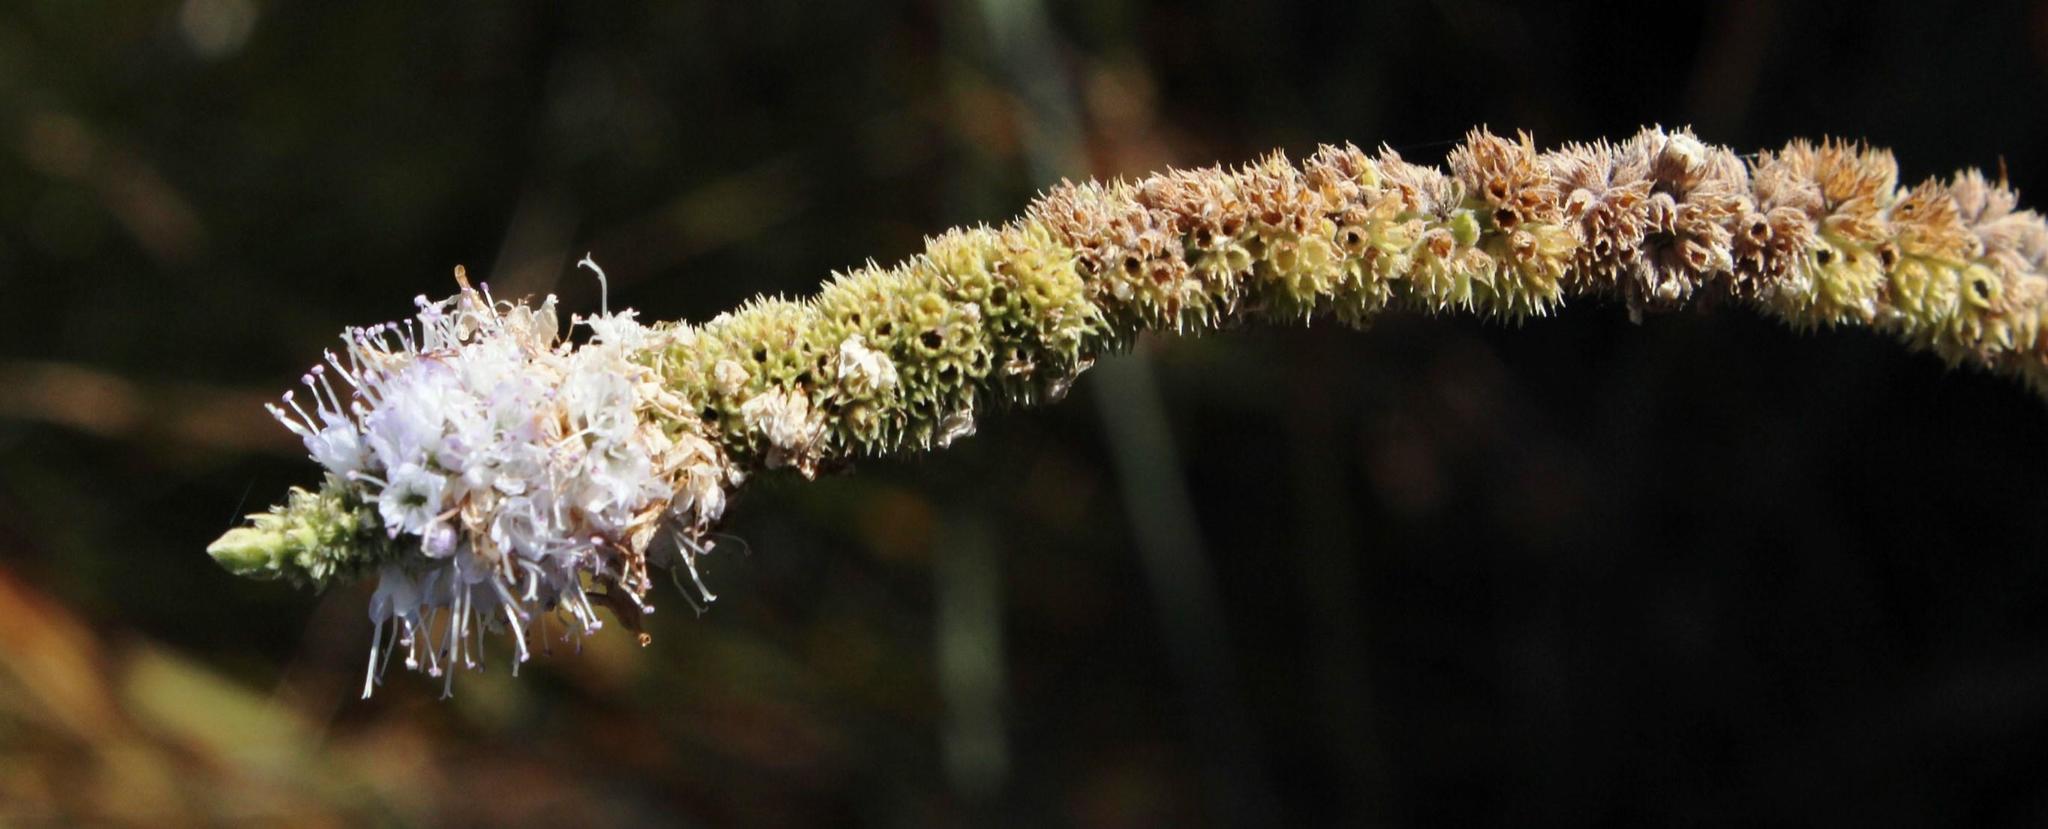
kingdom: Plantae
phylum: Tracheophyta
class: Magnoliopsida
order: Lamiales
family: Lamiaceae
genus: Mentha
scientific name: Mentha longifolia
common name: Horse mint
